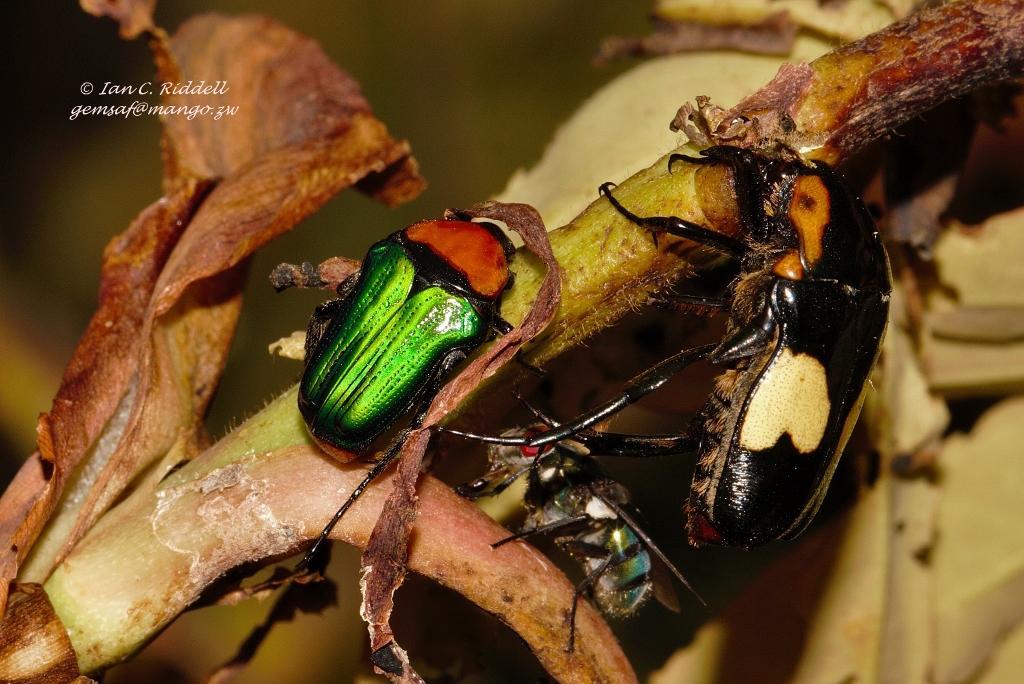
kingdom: Animalia
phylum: Arthropoda
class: Insecta
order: Coleoptera
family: Scarabaeidae
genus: Leucocelis
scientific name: Leucocelis amethystina
